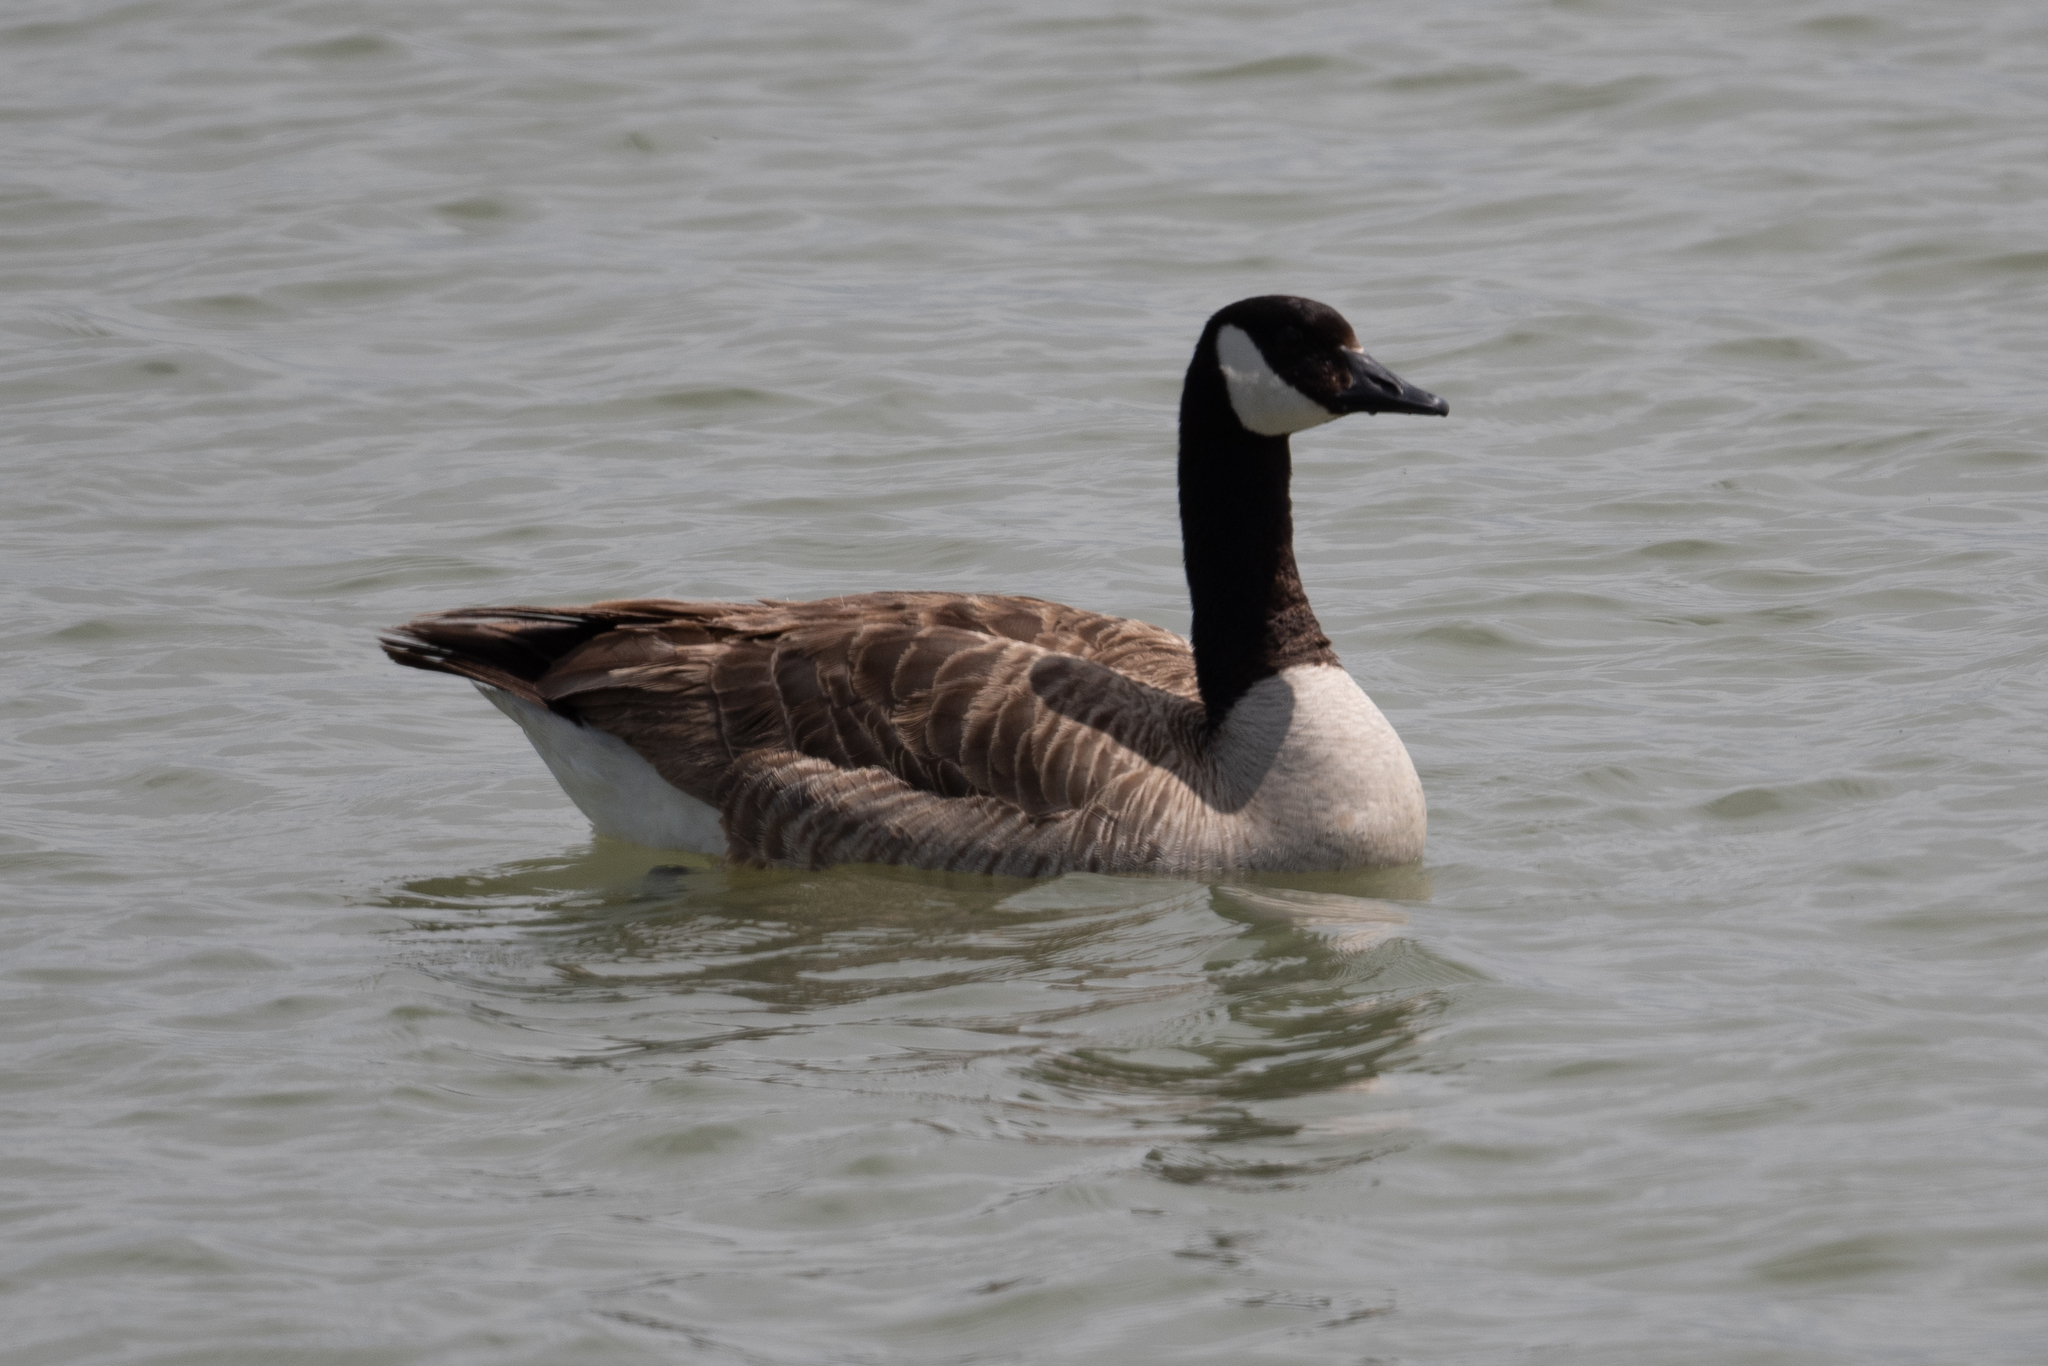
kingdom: Animalia
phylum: Chordata
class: Aves
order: Anseriformes
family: Anatidae
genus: Branta
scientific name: Branta canadensis
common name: Canada goose
